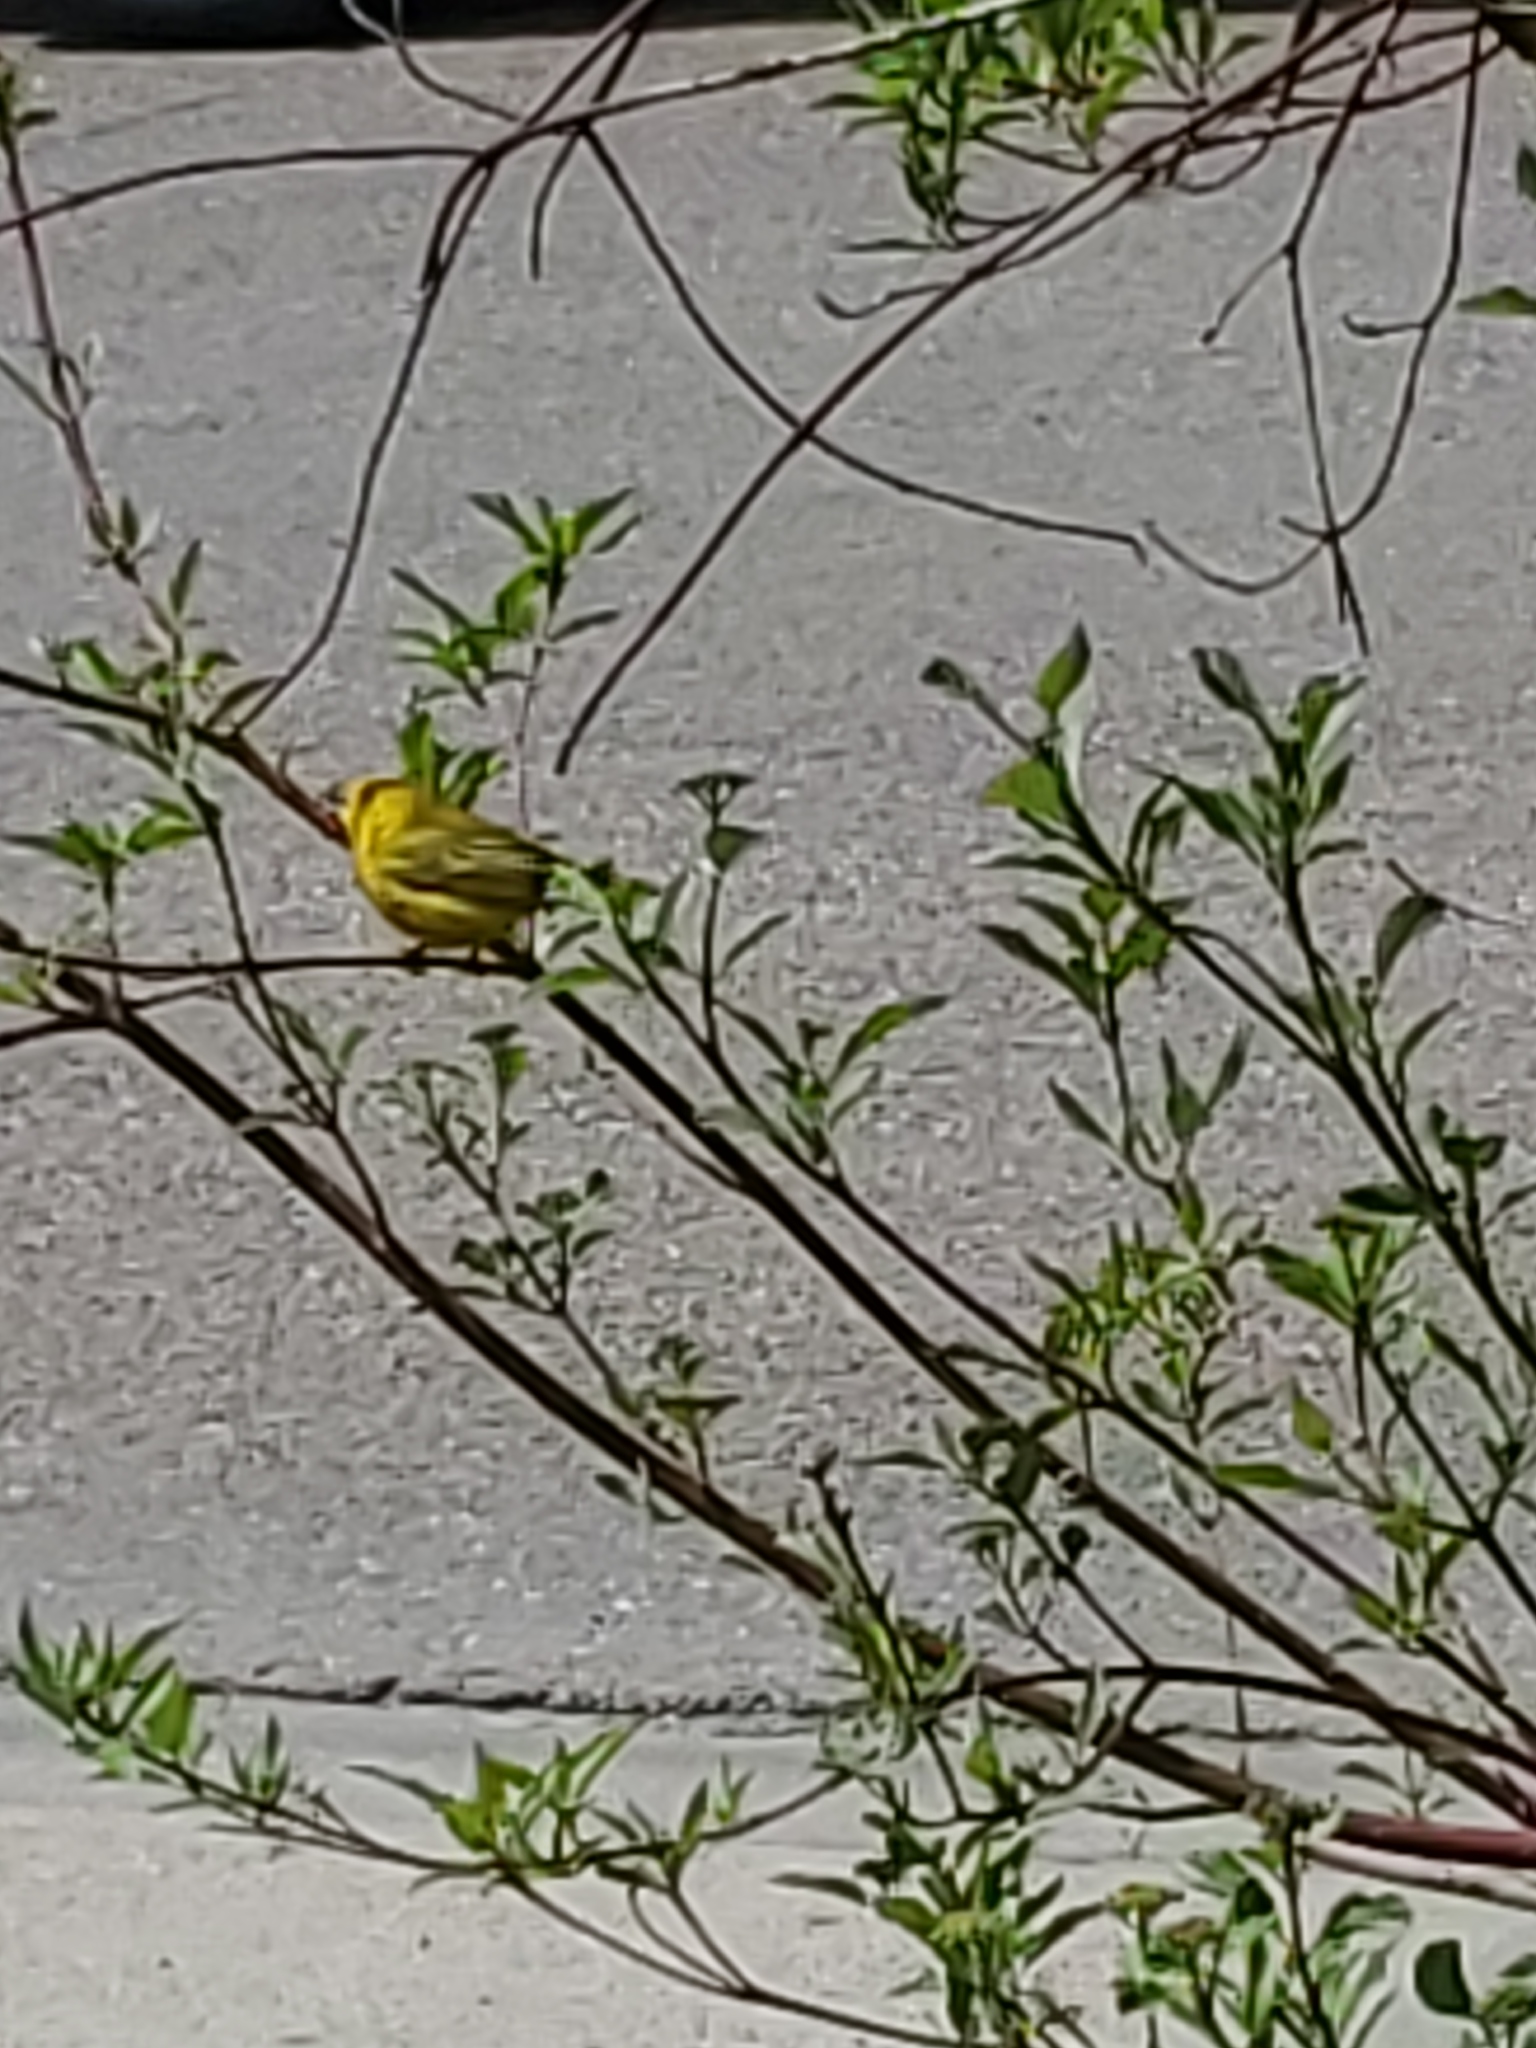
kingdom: Animalia
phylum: Chordata
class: Aves
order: Passeriformes
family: Parulidae
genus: Setophaga
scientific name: Setophaga petechia
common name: Yellow warbler
